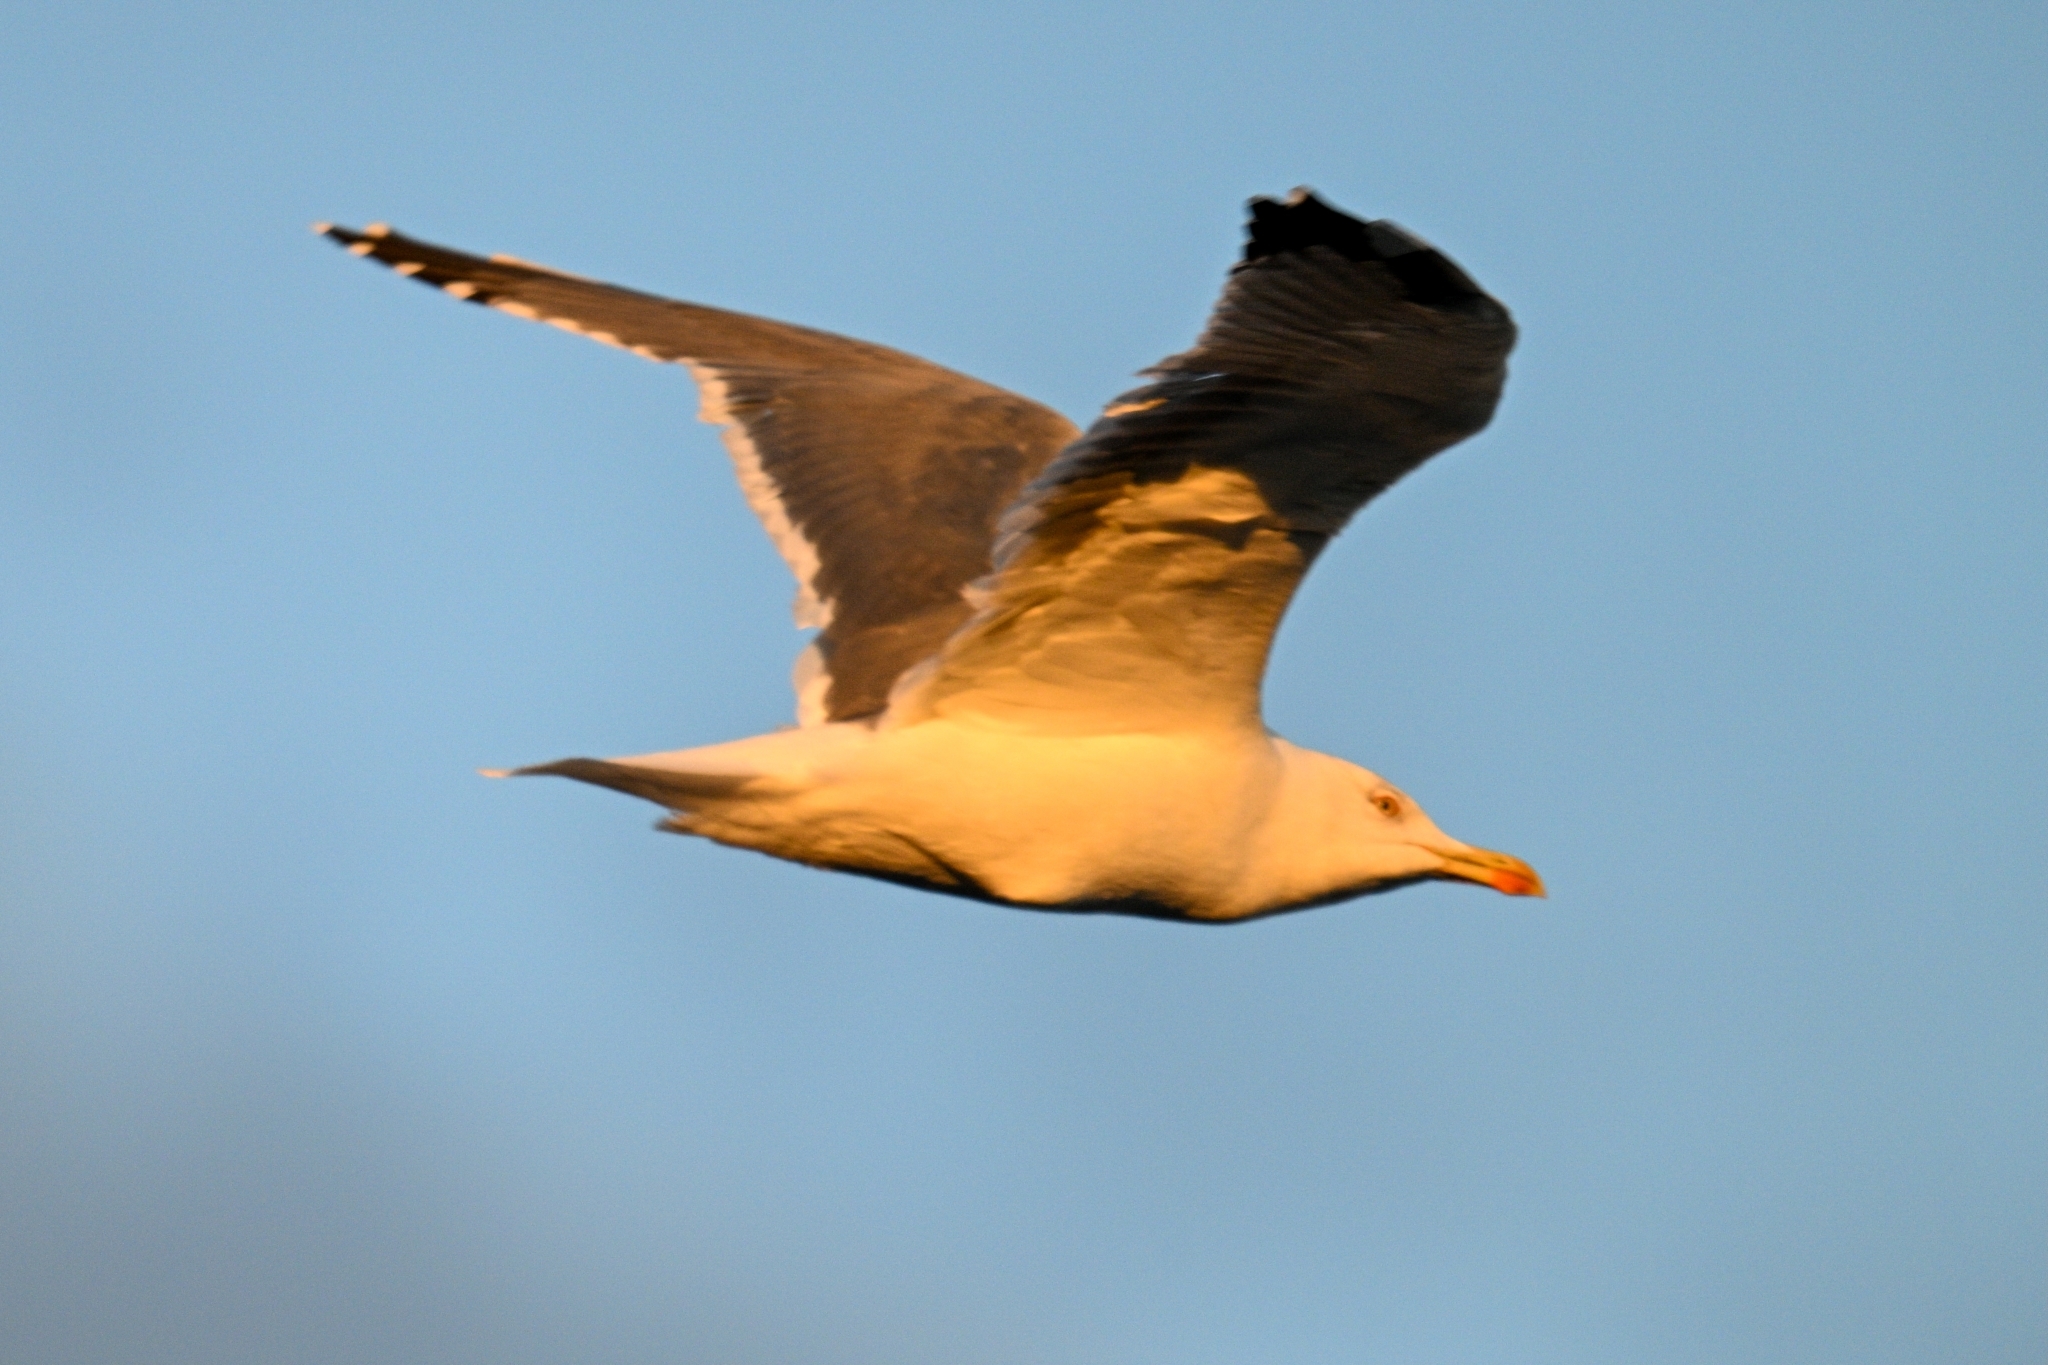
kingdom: Animalia
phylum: Chordata
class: Aves
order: Charadriiformes
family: Laridae
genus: Larus
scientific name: Larus michahellis
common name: Yellow-legged gull
